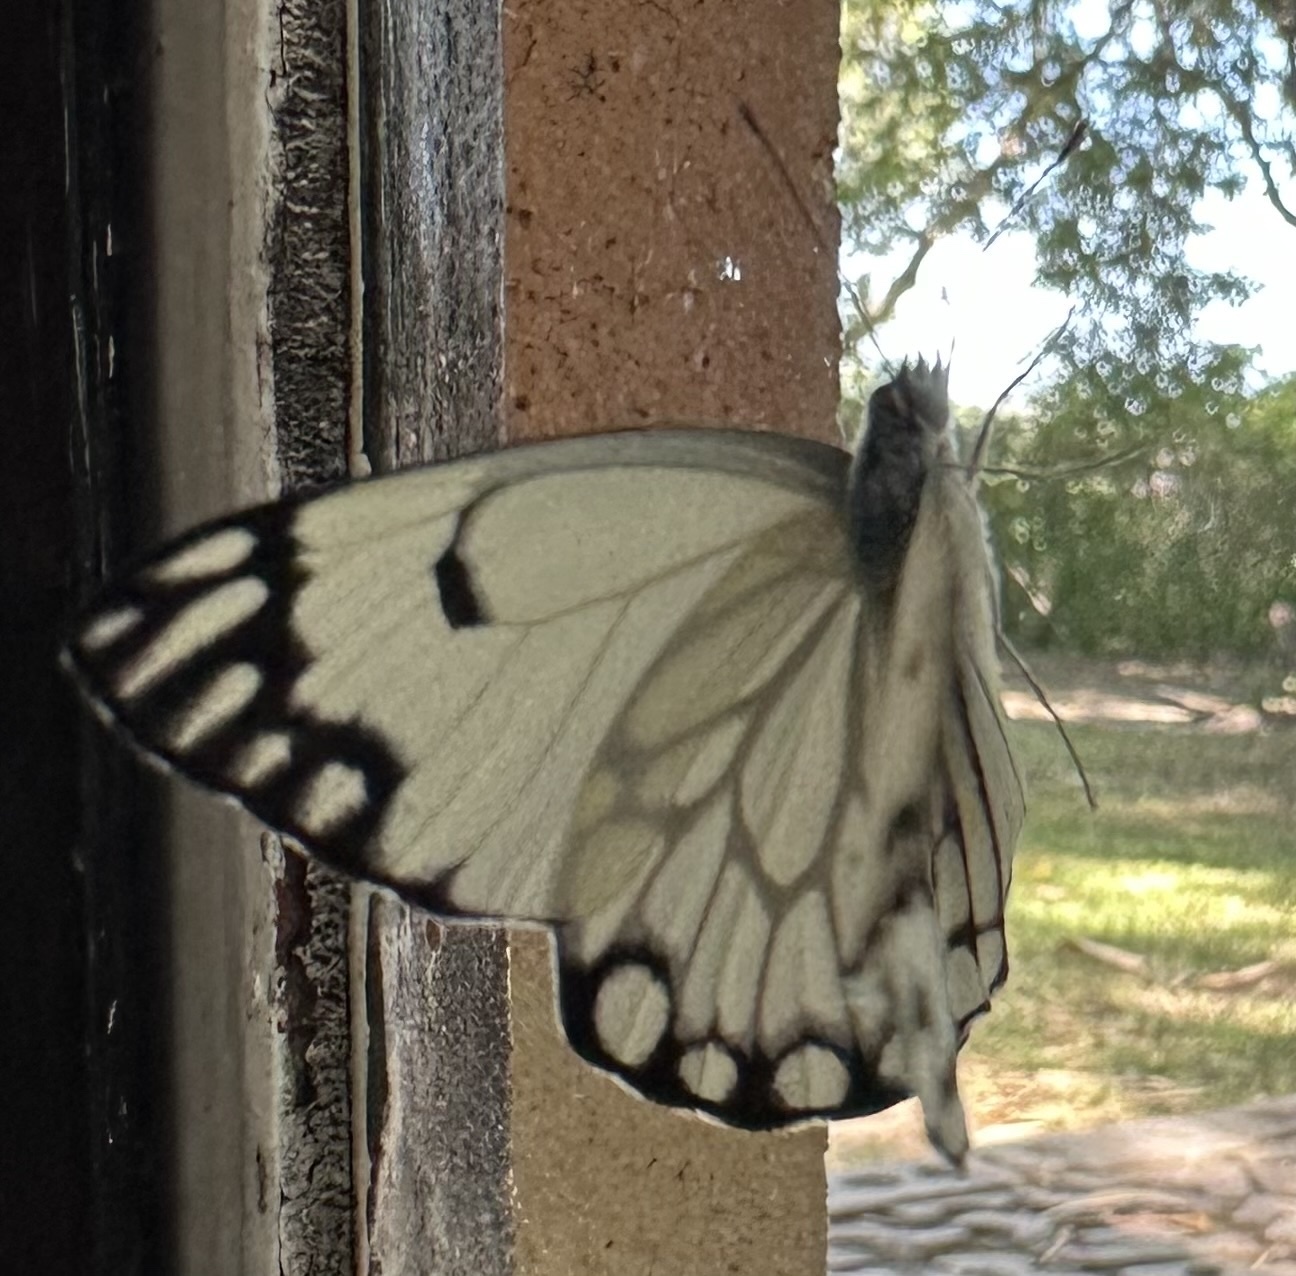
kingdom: Animalia
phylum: Arthropoda
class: Insecta
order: Lepidoptera
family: Pieridae
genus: Belenois
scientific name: Belenois aurota
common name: Brown-veined white
